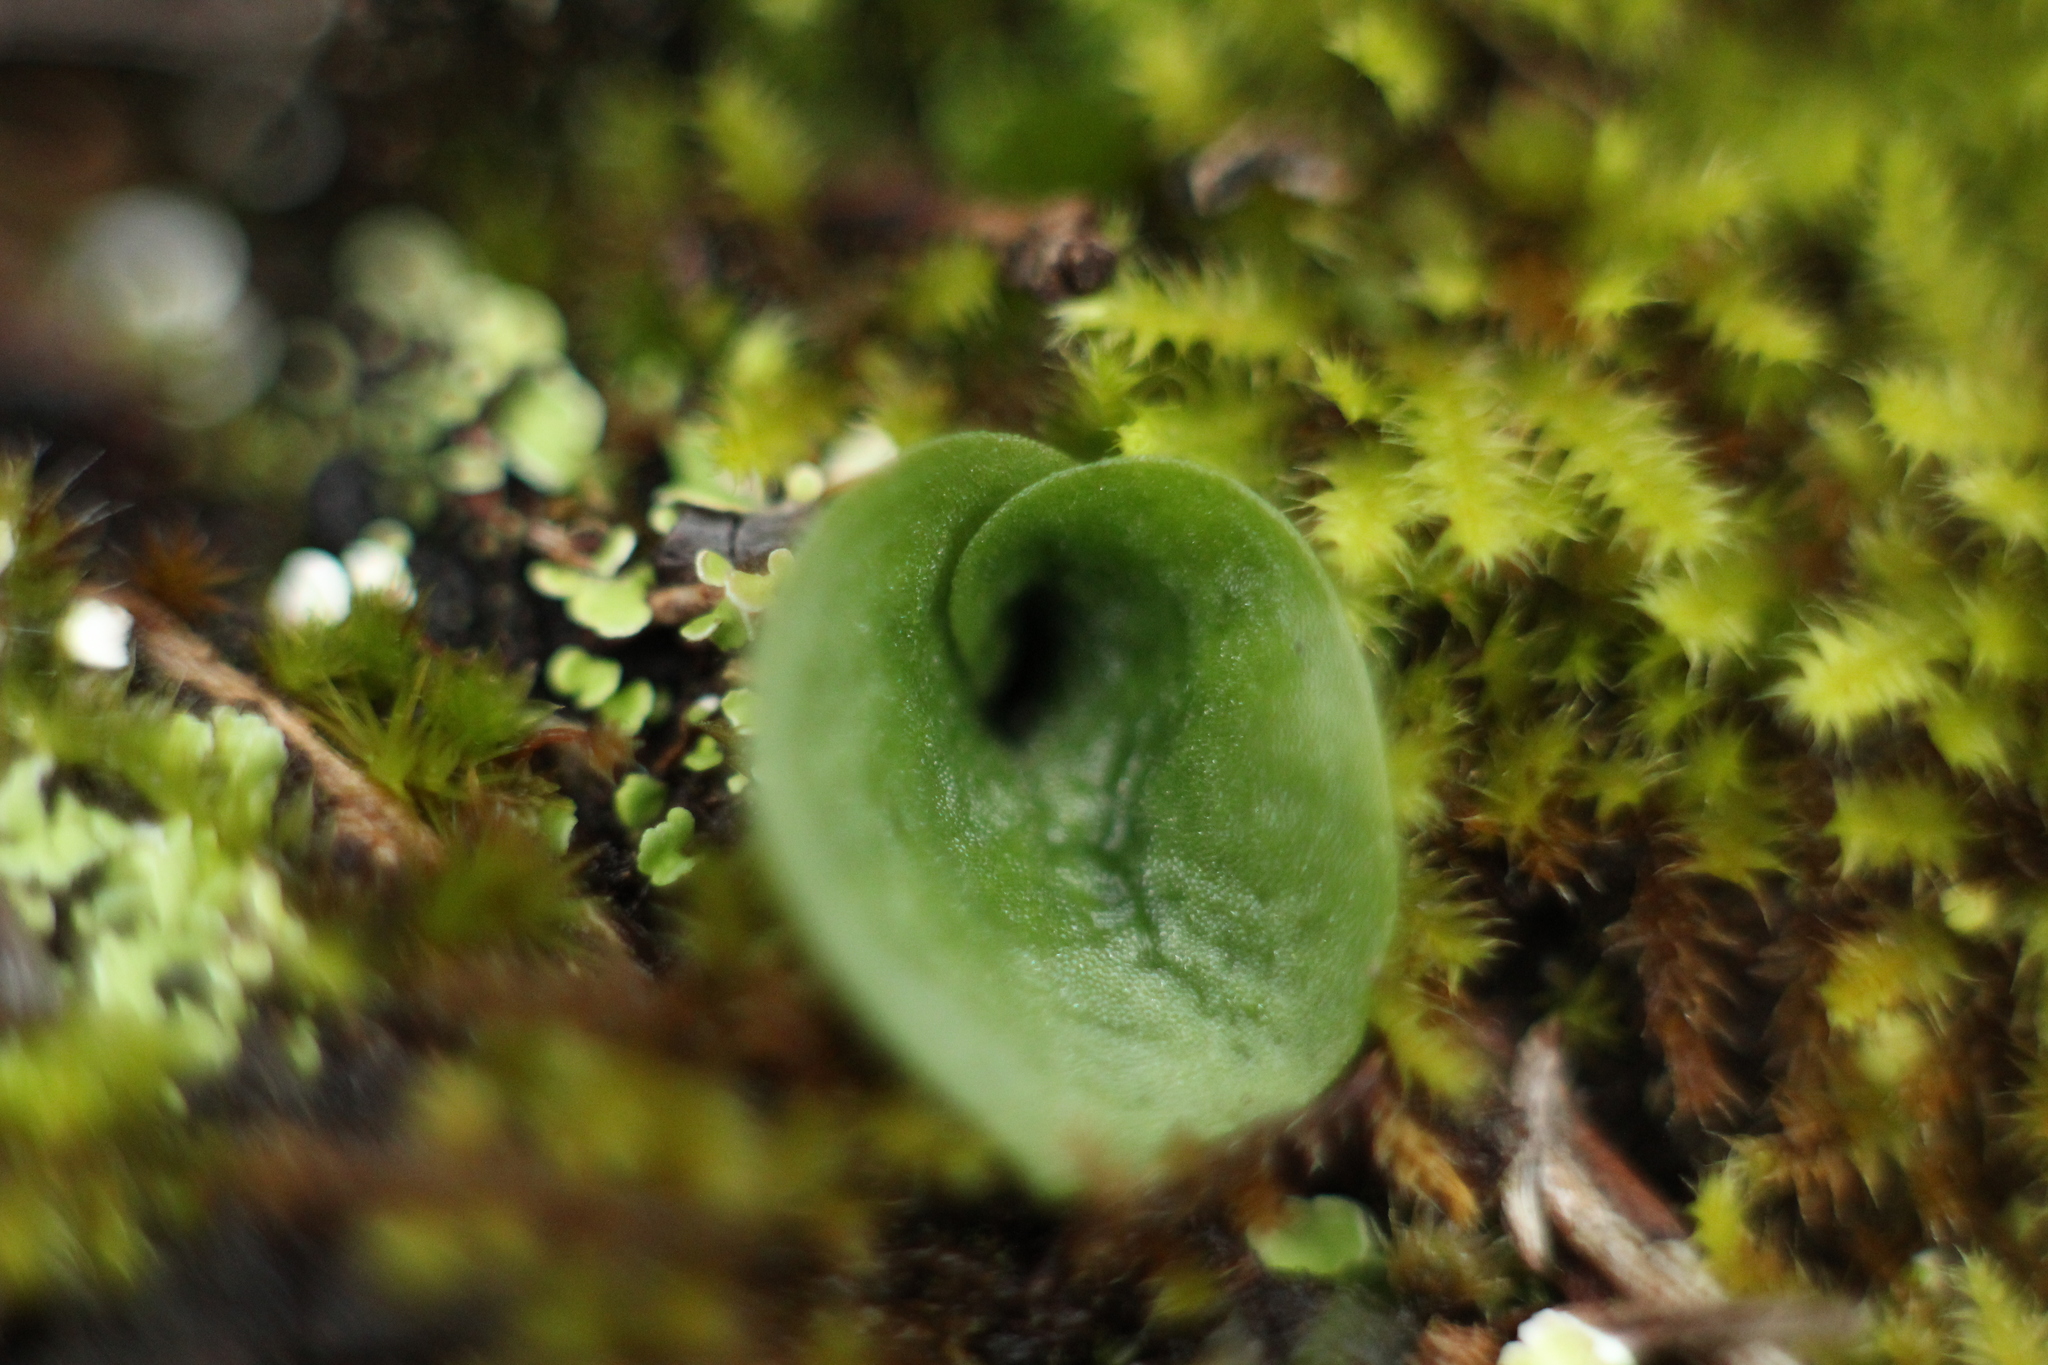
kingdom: Plantae
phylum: Tracheophyta
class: Liliopsida
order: Asparagales
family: Orchidaceae
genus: Corybas
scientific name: Corybas recurvus
